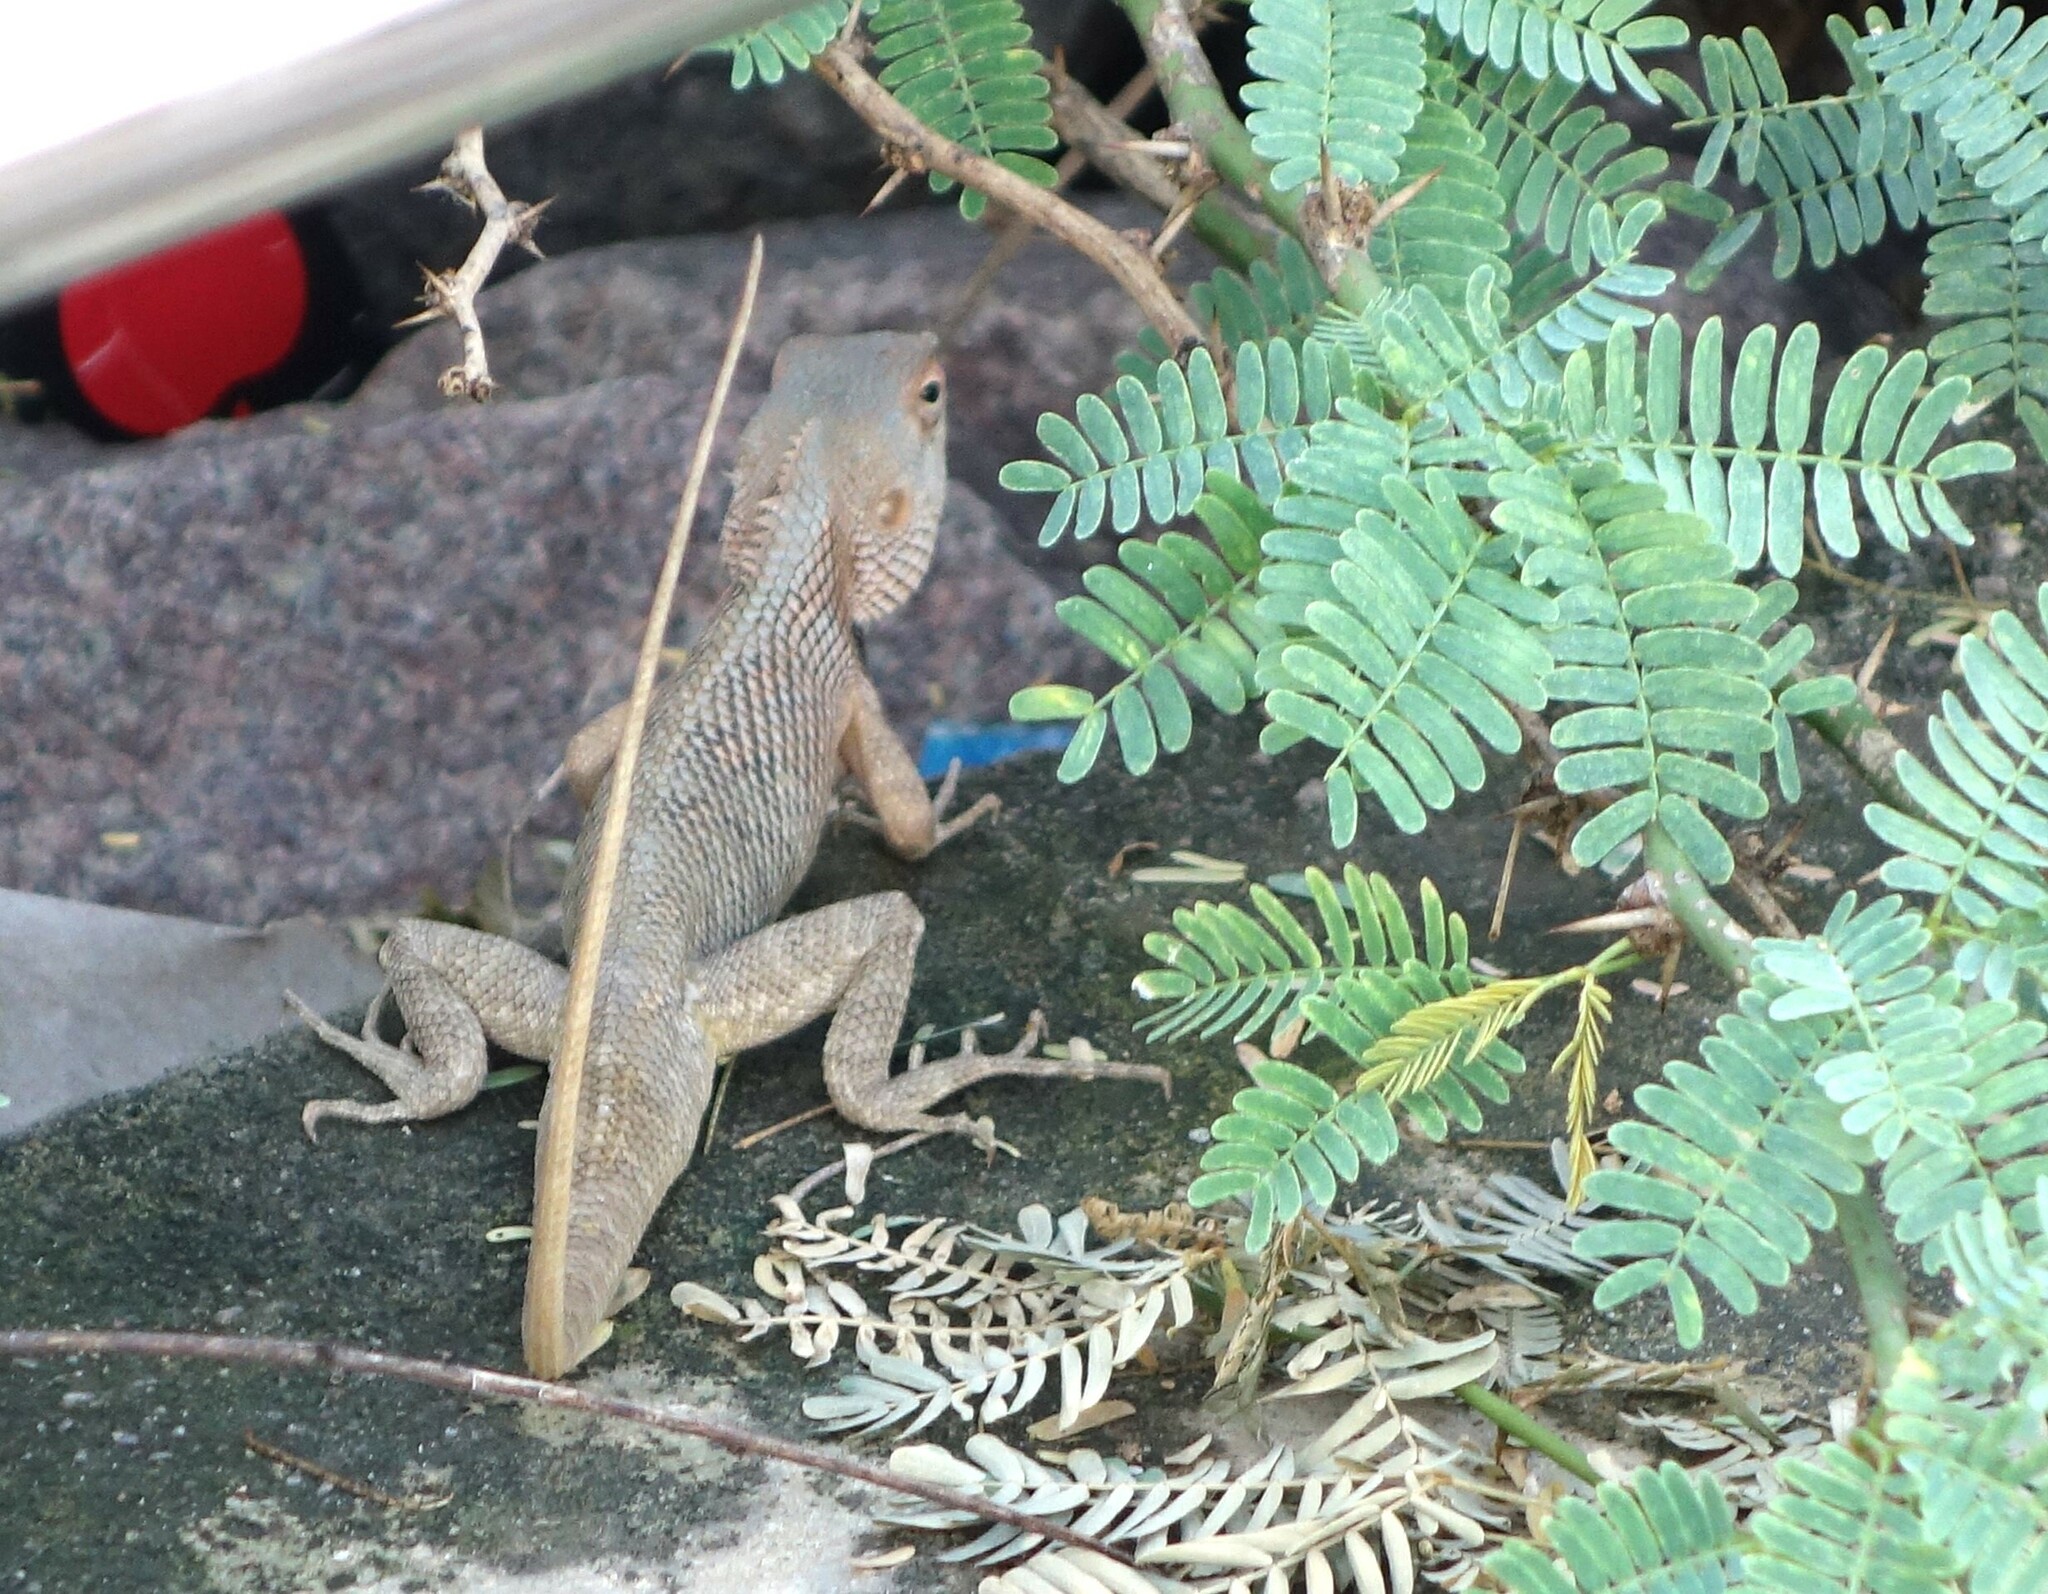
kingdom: Animalia
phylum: Chordata
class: Squamata
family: Agamidae
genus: Calotes
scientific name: Calotes versicolor
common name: Oriental garden lizard
